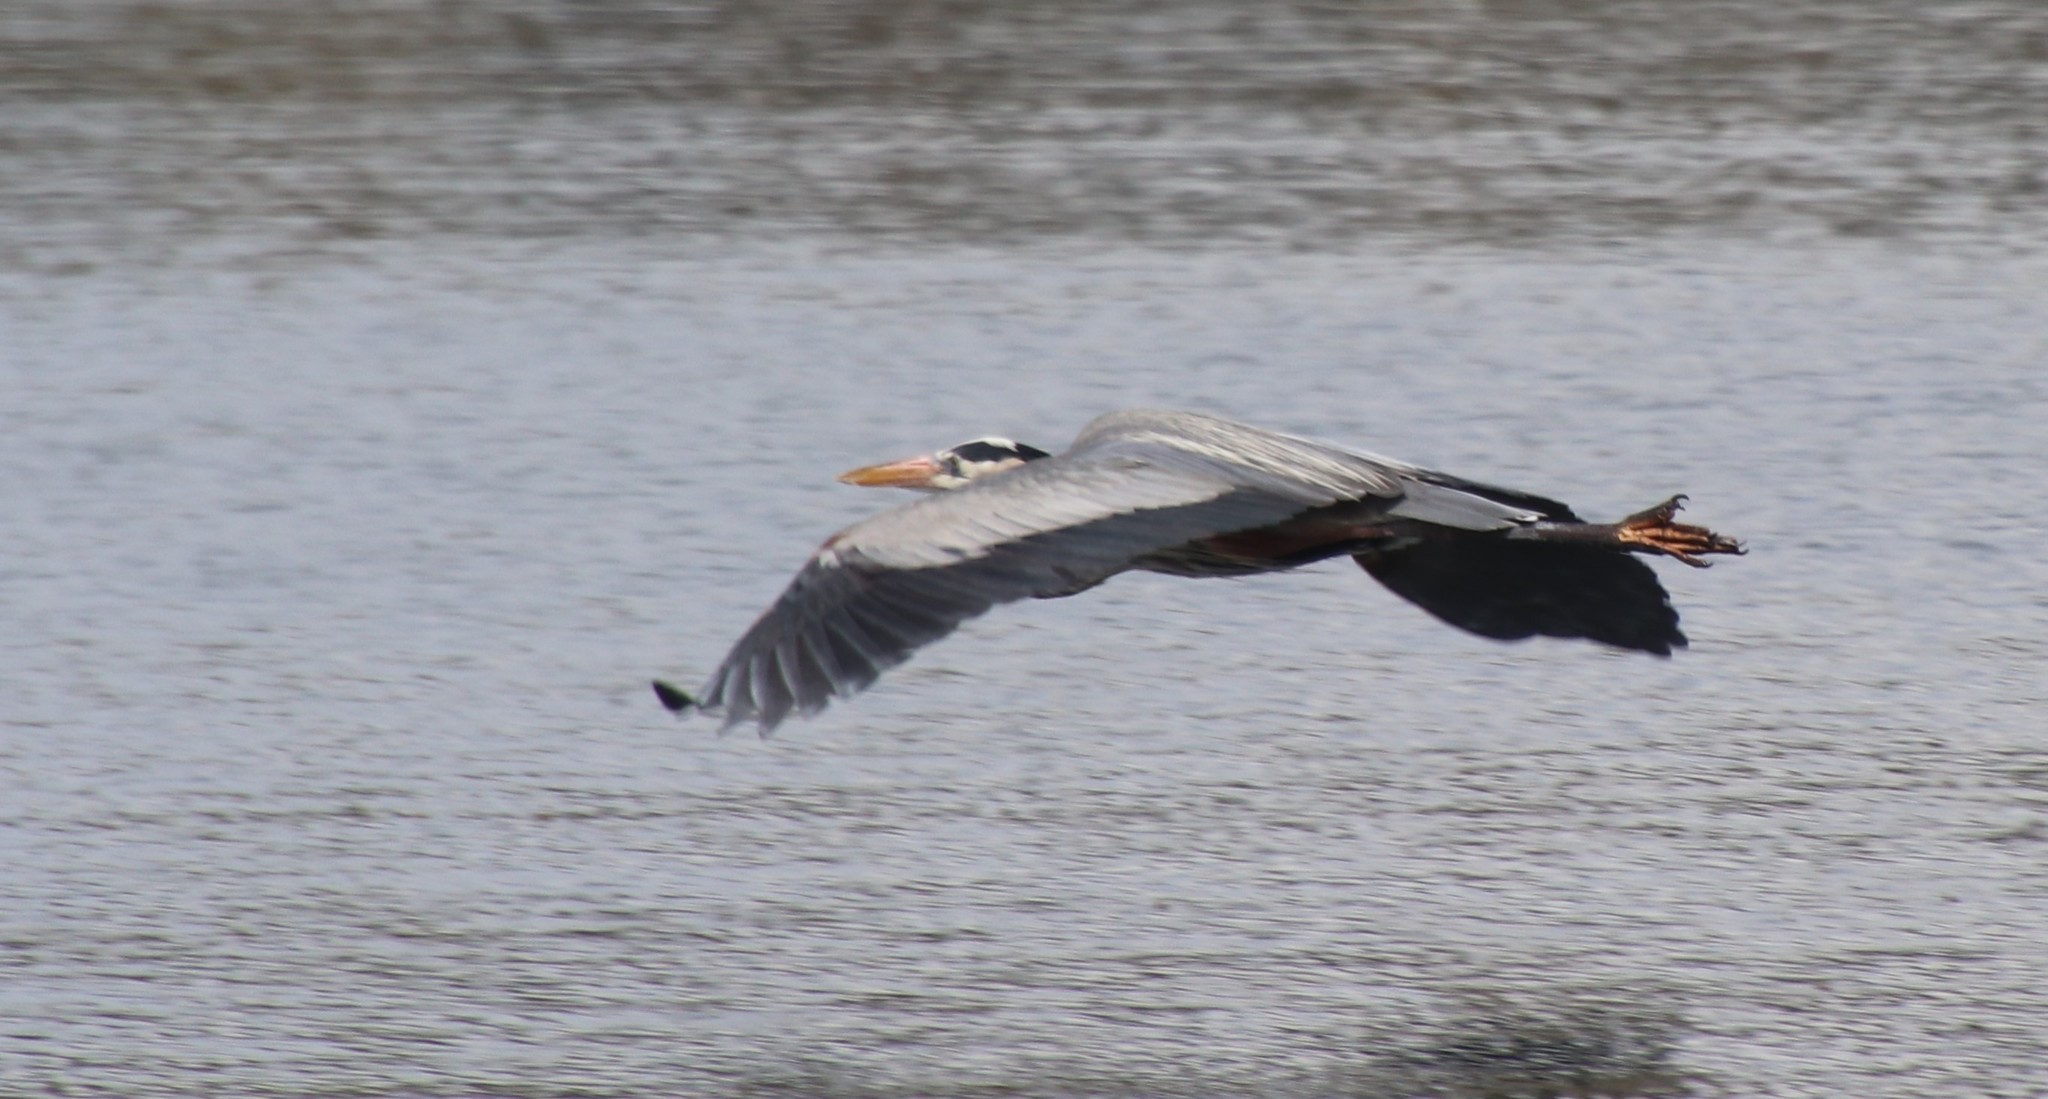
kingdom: Animalia
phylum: Chordata
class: Aves
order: Pelecaniformes
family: Ardeidae
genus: Ardea
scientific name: Ardea herodias
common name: Great blue heron
